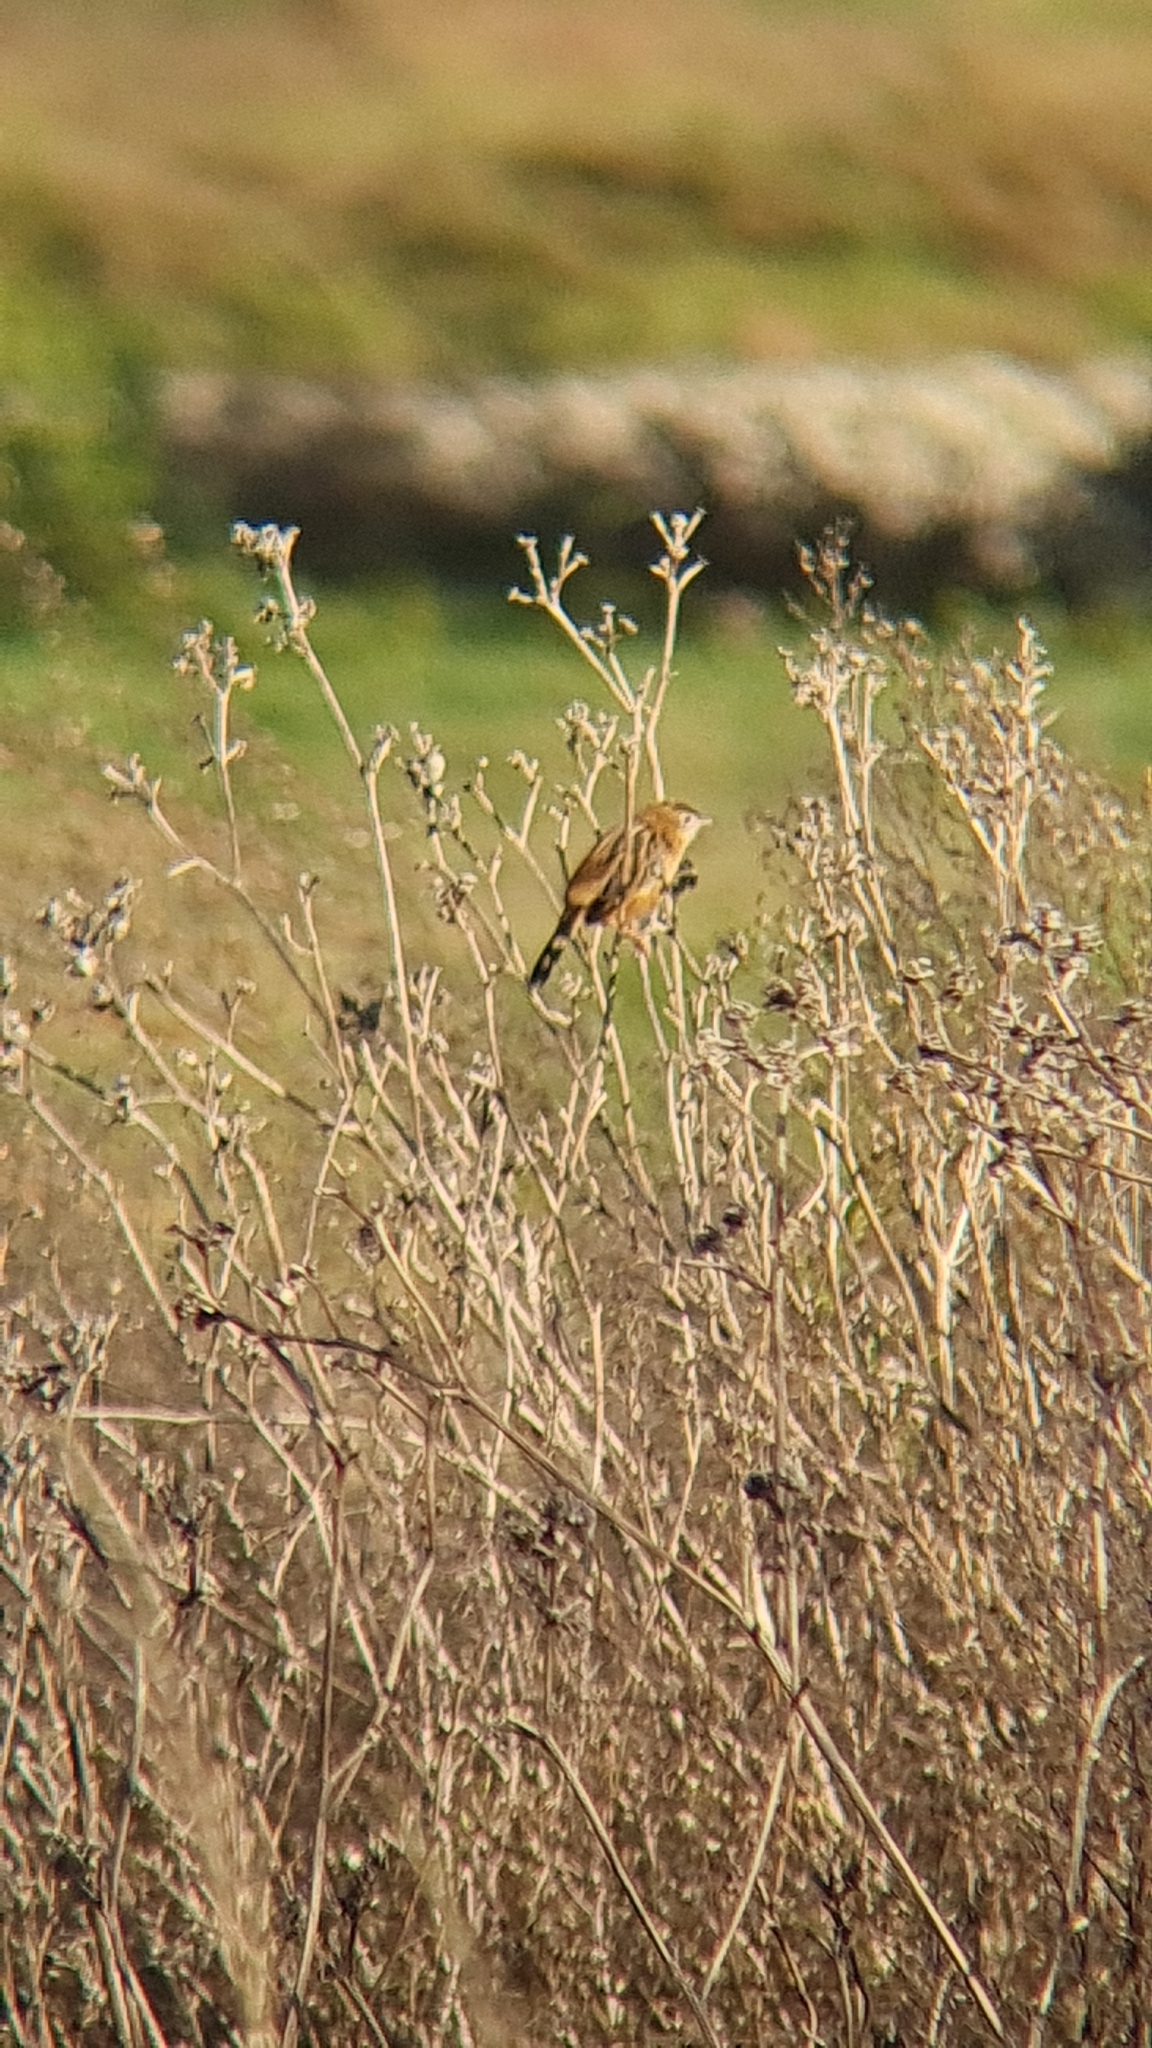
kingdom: Animalia
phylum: Chordata
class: Aves
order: Passeriformes
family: Cisticolidae
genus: Cisticola
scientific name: Cisticola juncidis
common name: Zitting cisticola
